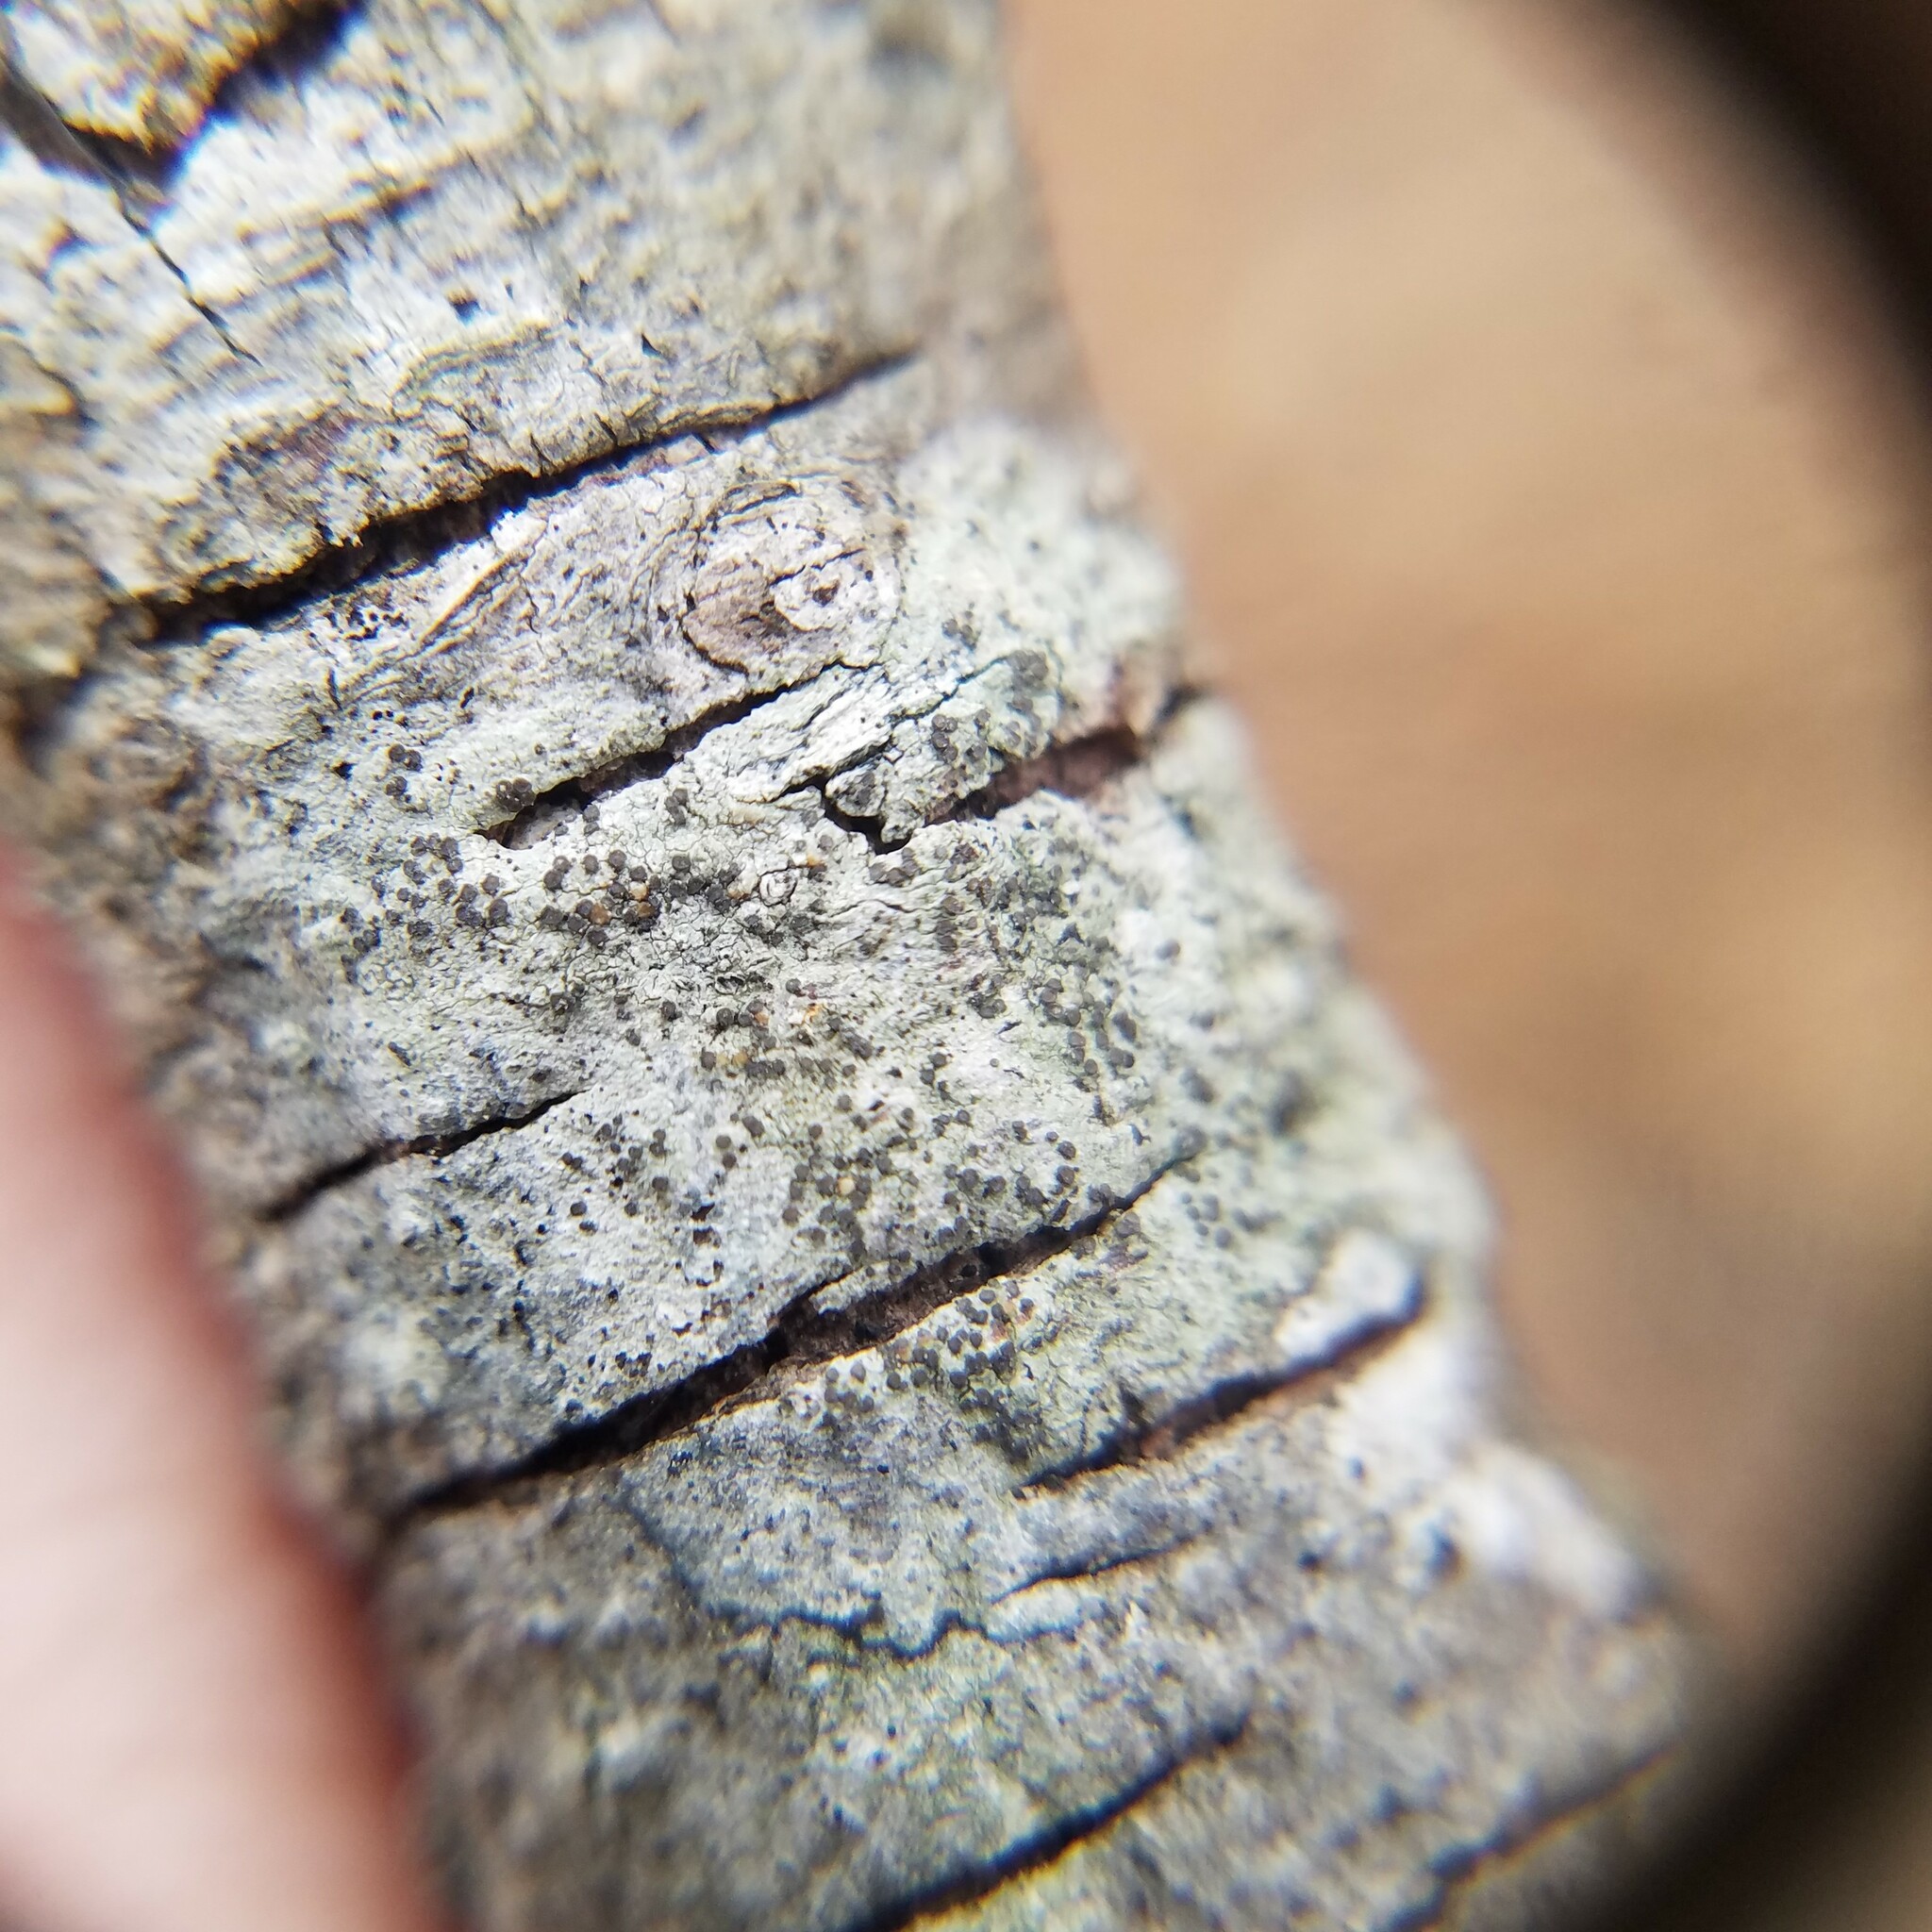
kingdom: Fungi
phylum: Ascomycota
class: Lecanoromycetes
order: Lecanorales
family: Lecanoraceae
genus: Traponora
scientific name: Traponora varians
